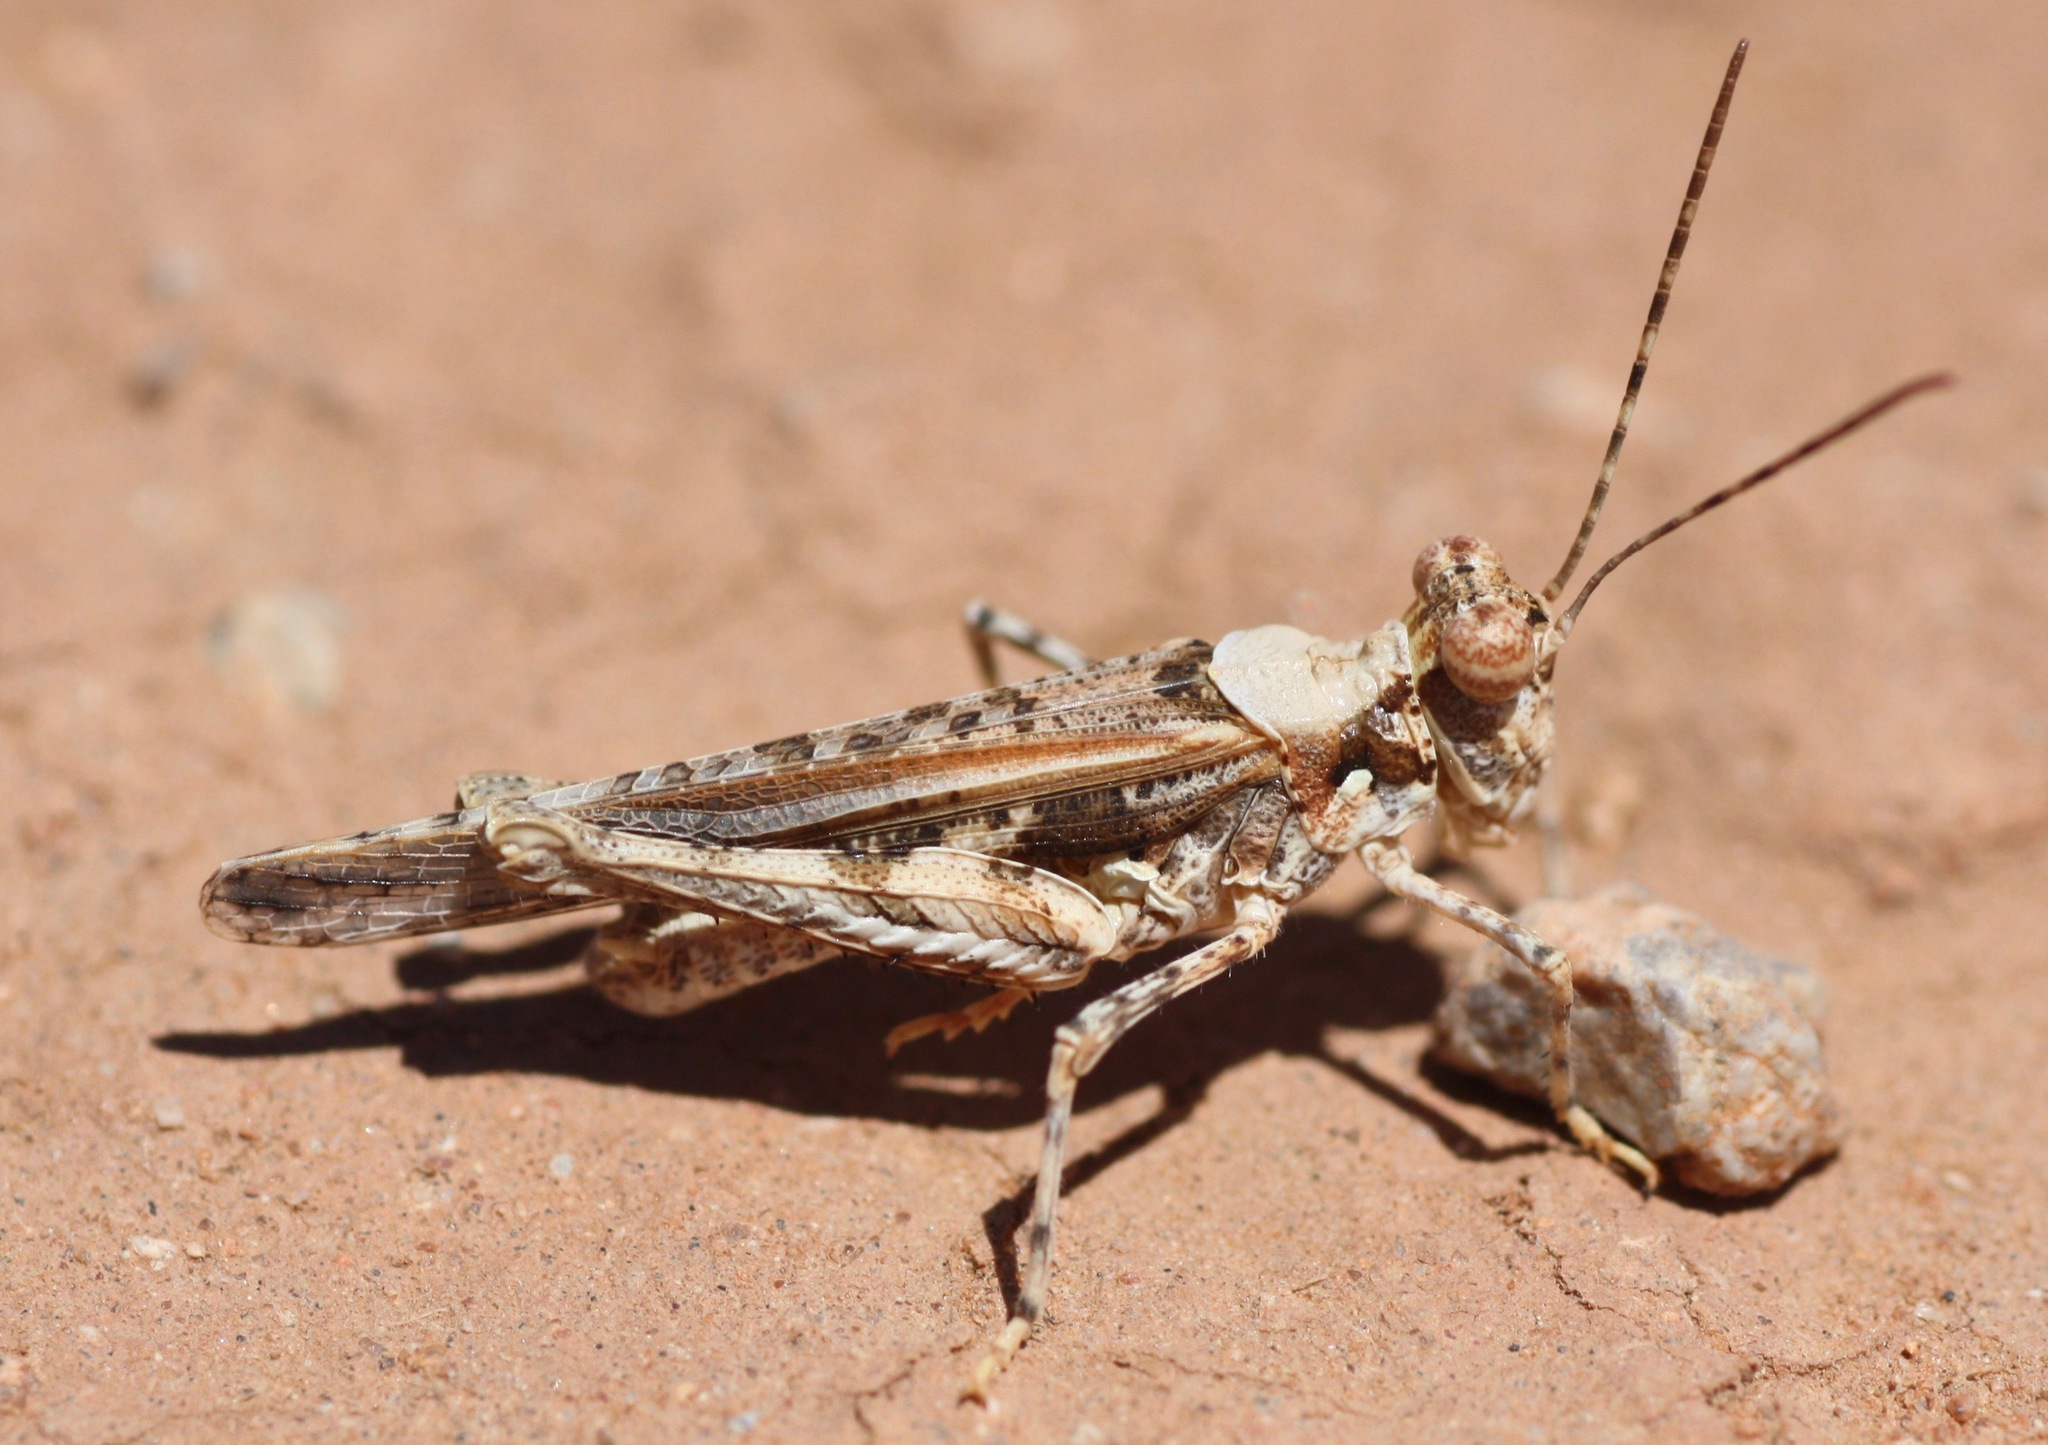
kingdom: Animalia
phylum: Arthropoda
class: Insecta
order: Orthoptera
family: Acrididae
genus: Derotmema
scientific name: Derotmema laticinctum
